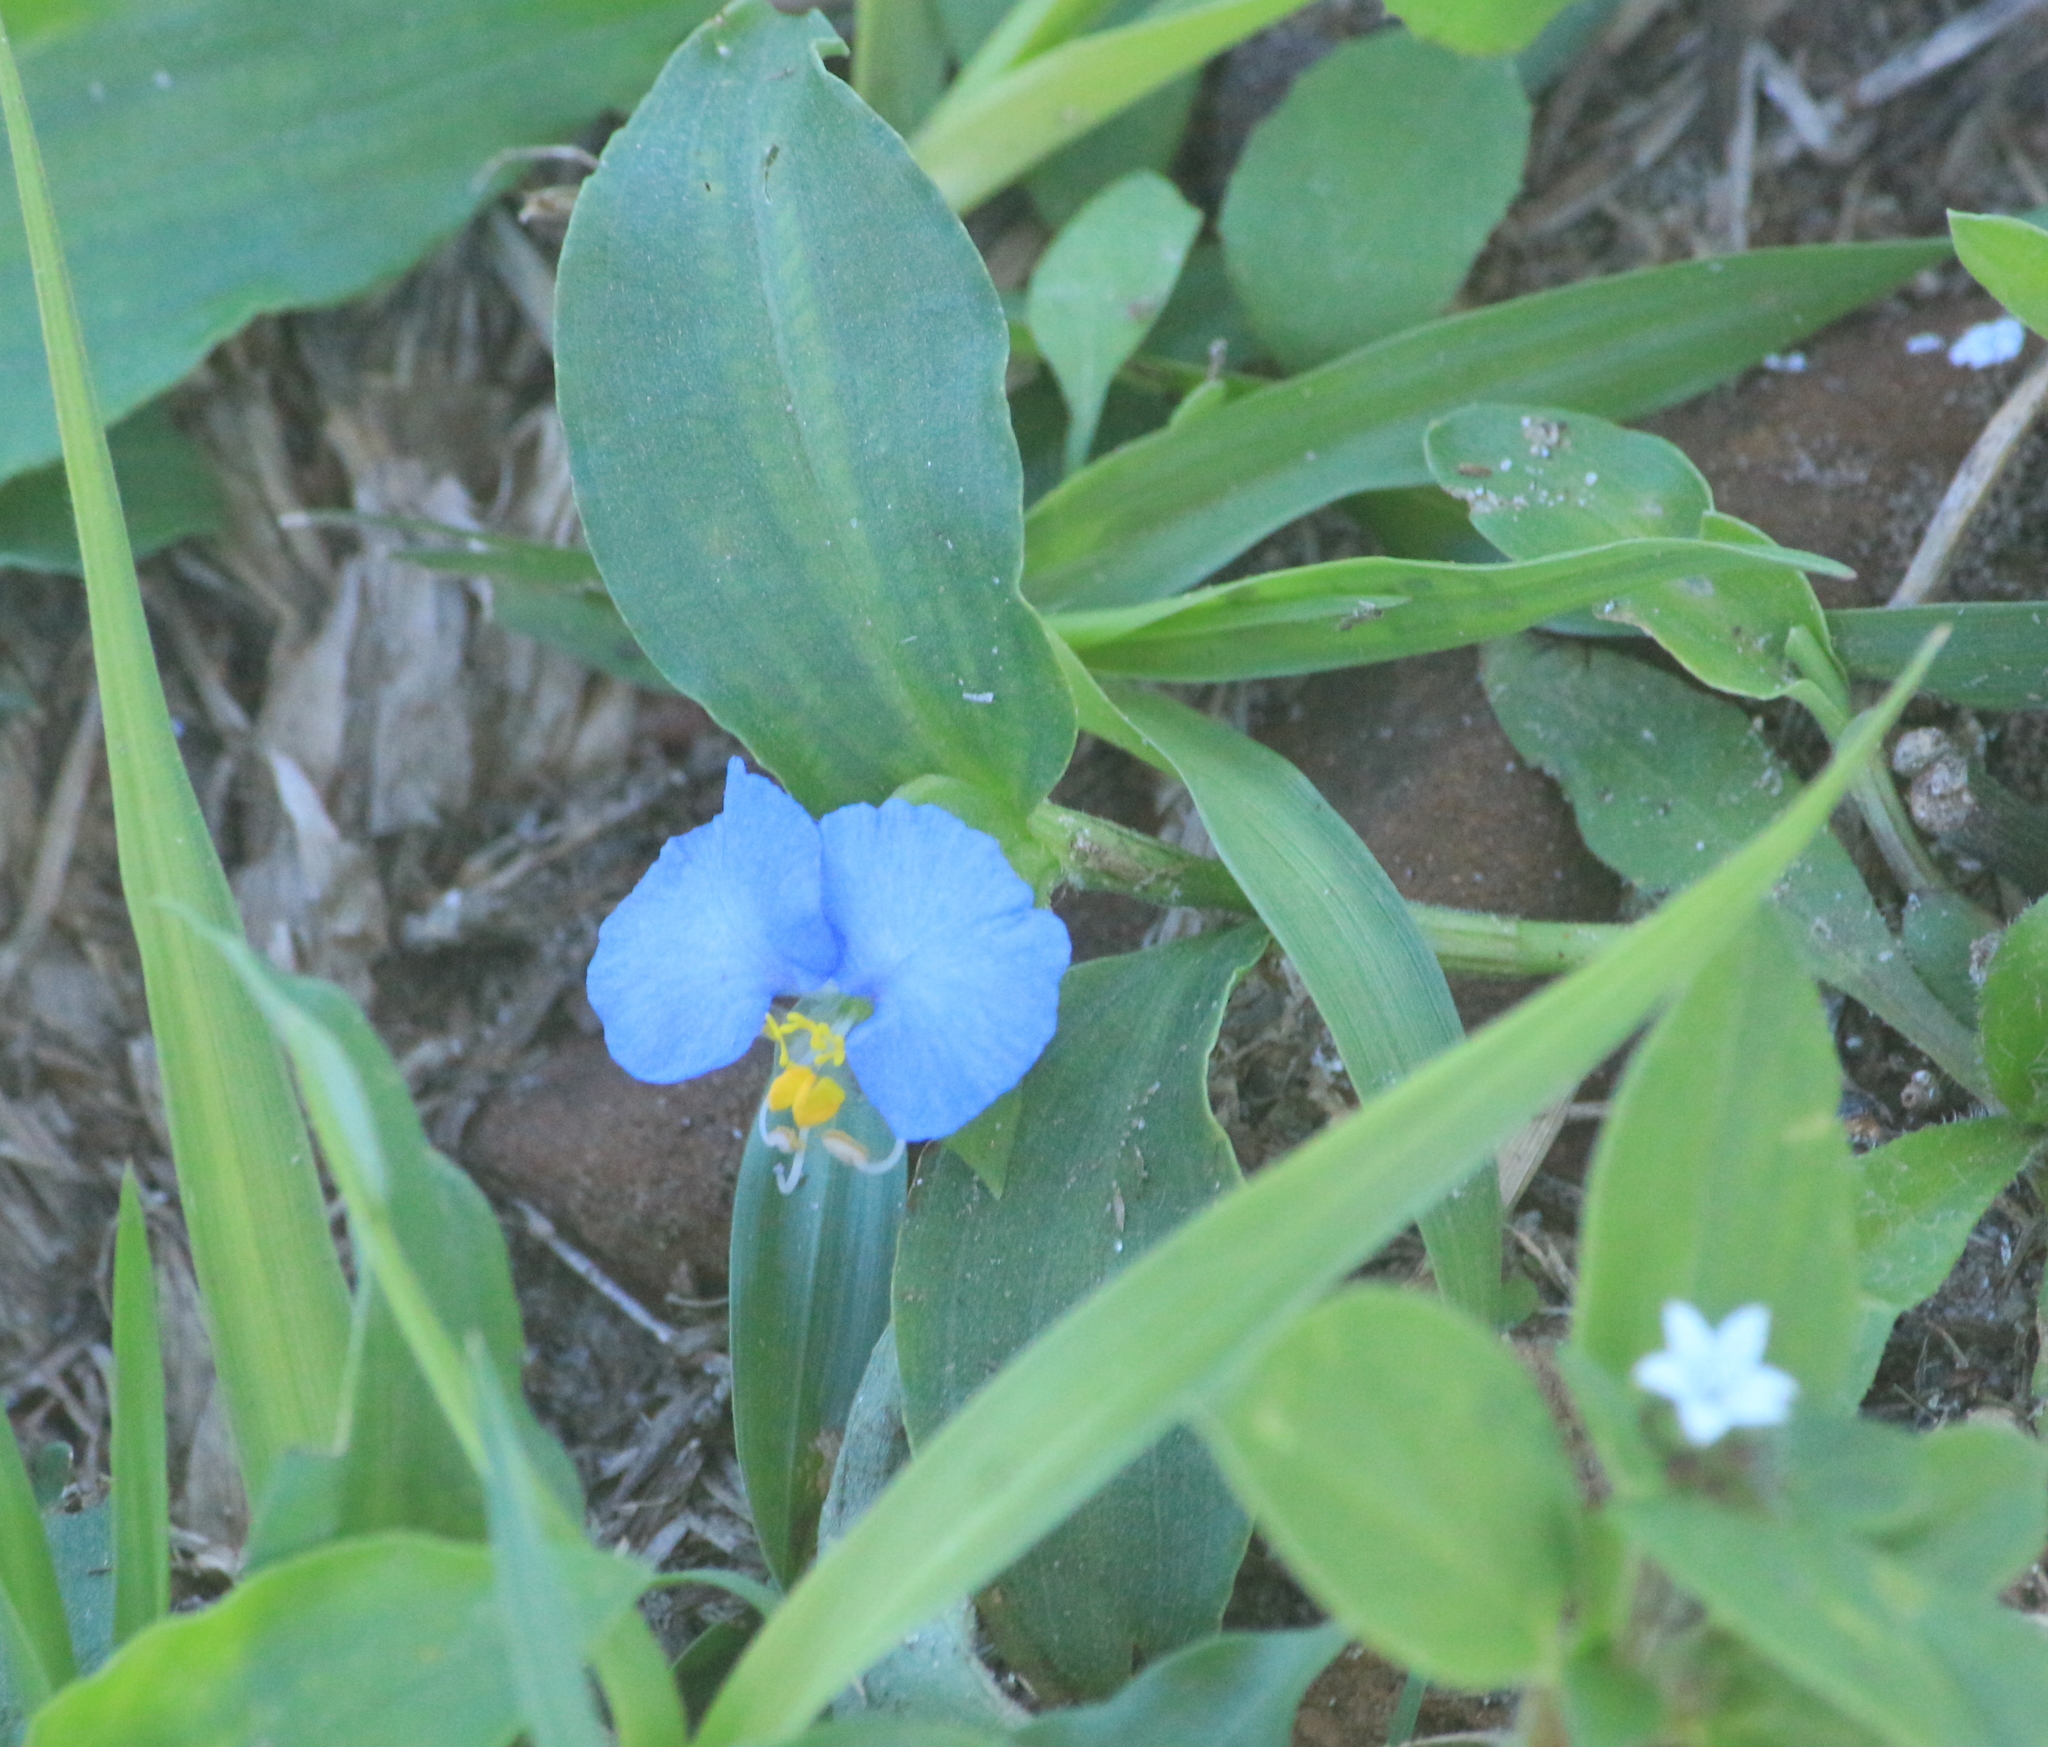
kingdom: Plantae
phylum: Tracheophyta
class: Liliopsida
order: Commelinales
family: Commelinaceae
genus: Commelina
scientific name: Commelina erecta
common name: Blousel blommetjie
